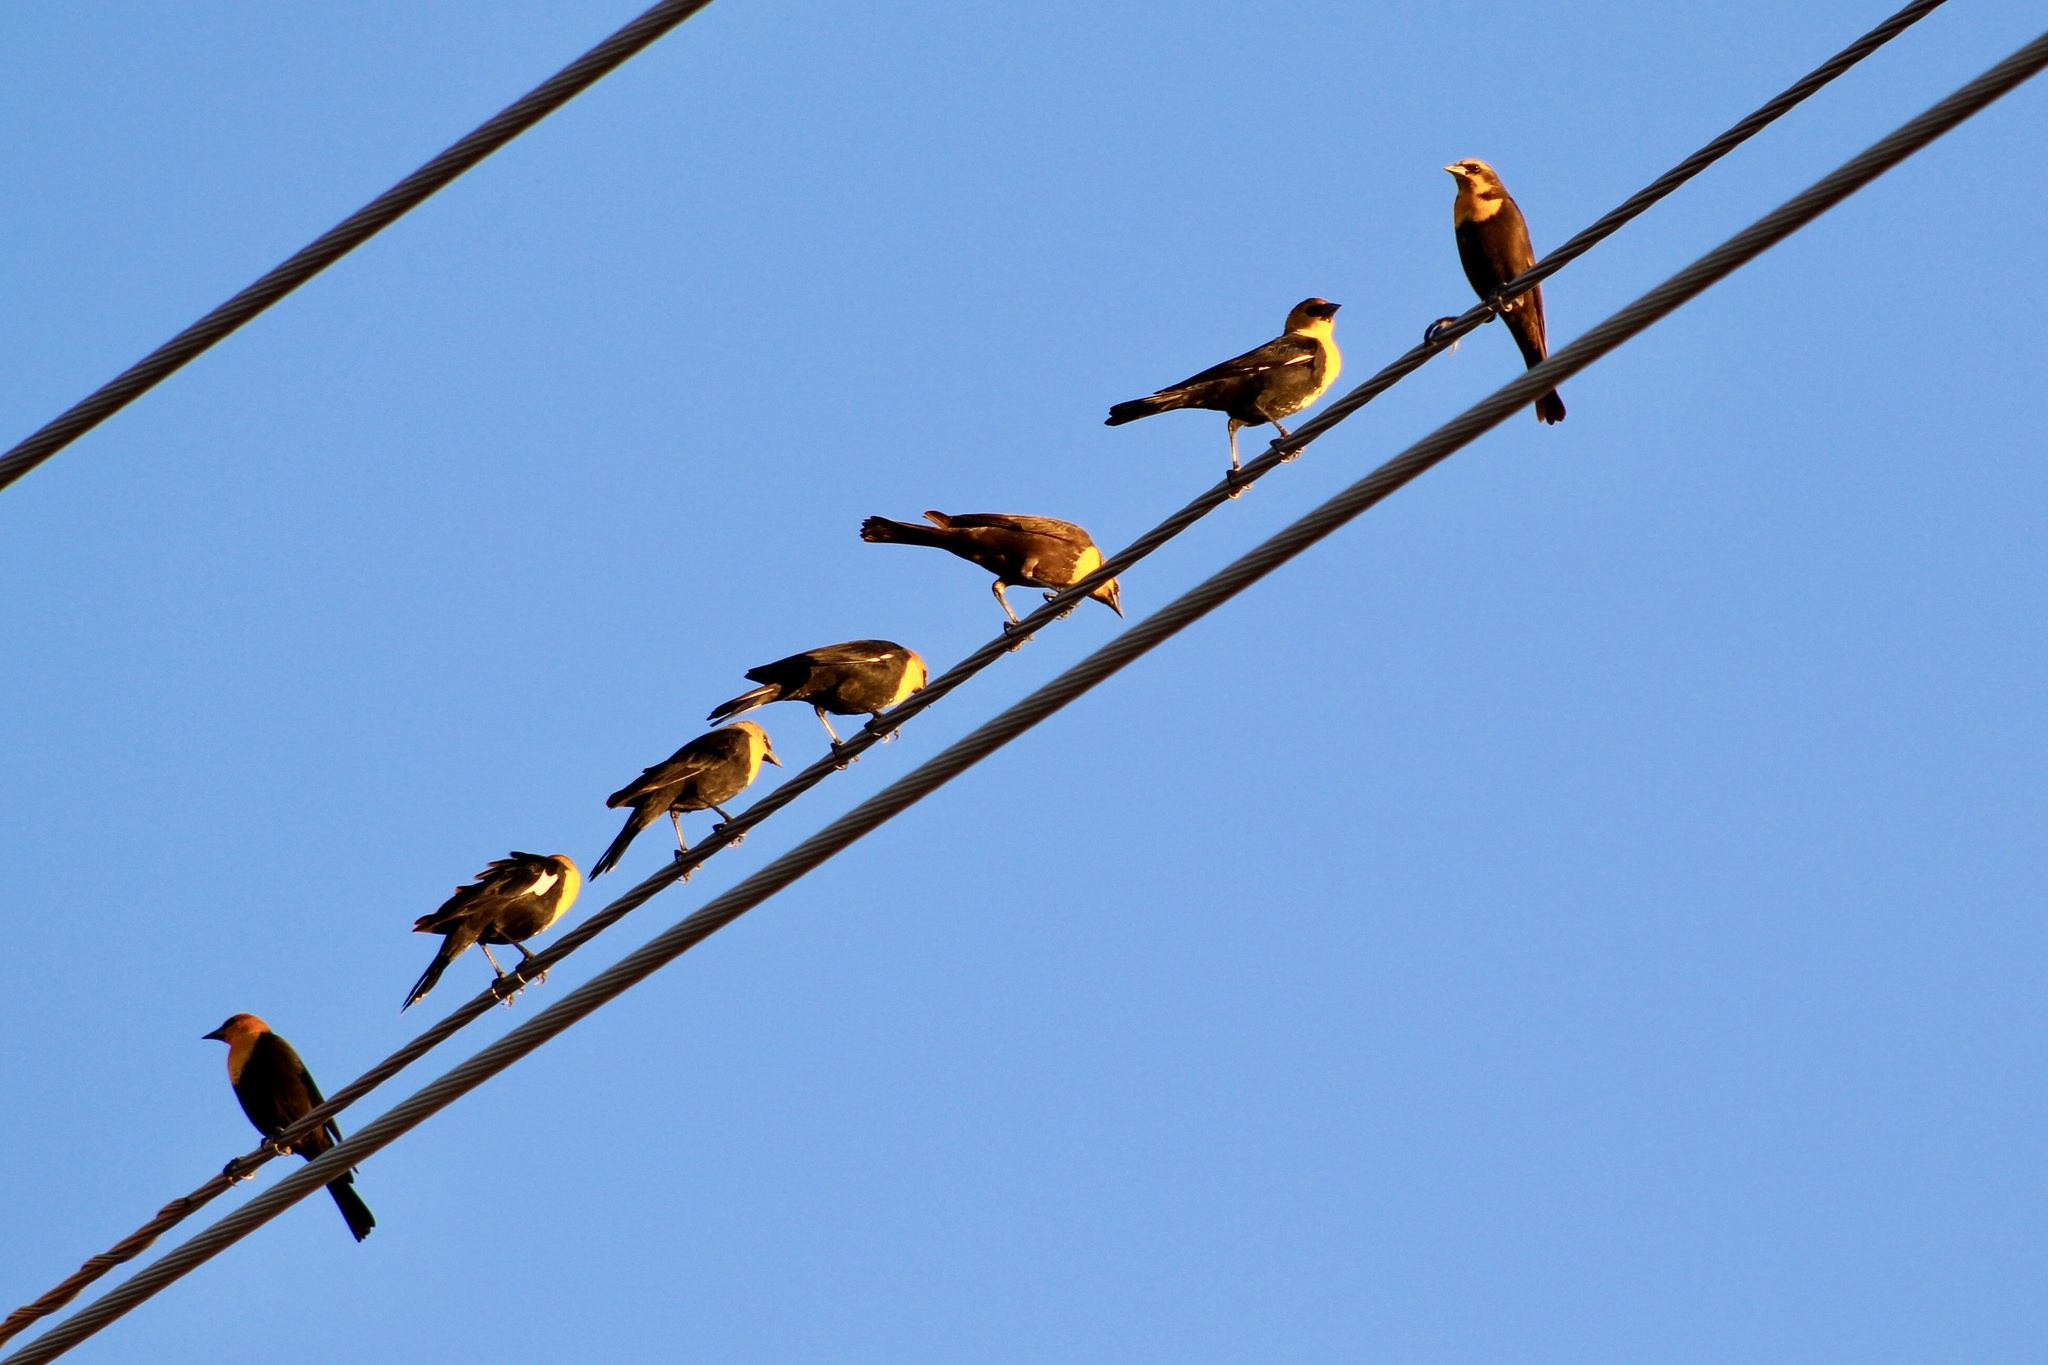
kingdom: Animalia
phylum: Chordata
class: Aves
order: Passeriformes
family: Icteridae
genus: Xanthocephalus
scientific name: Xanthocephalus xanthocephalus
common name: Yellow-headed blackbird
